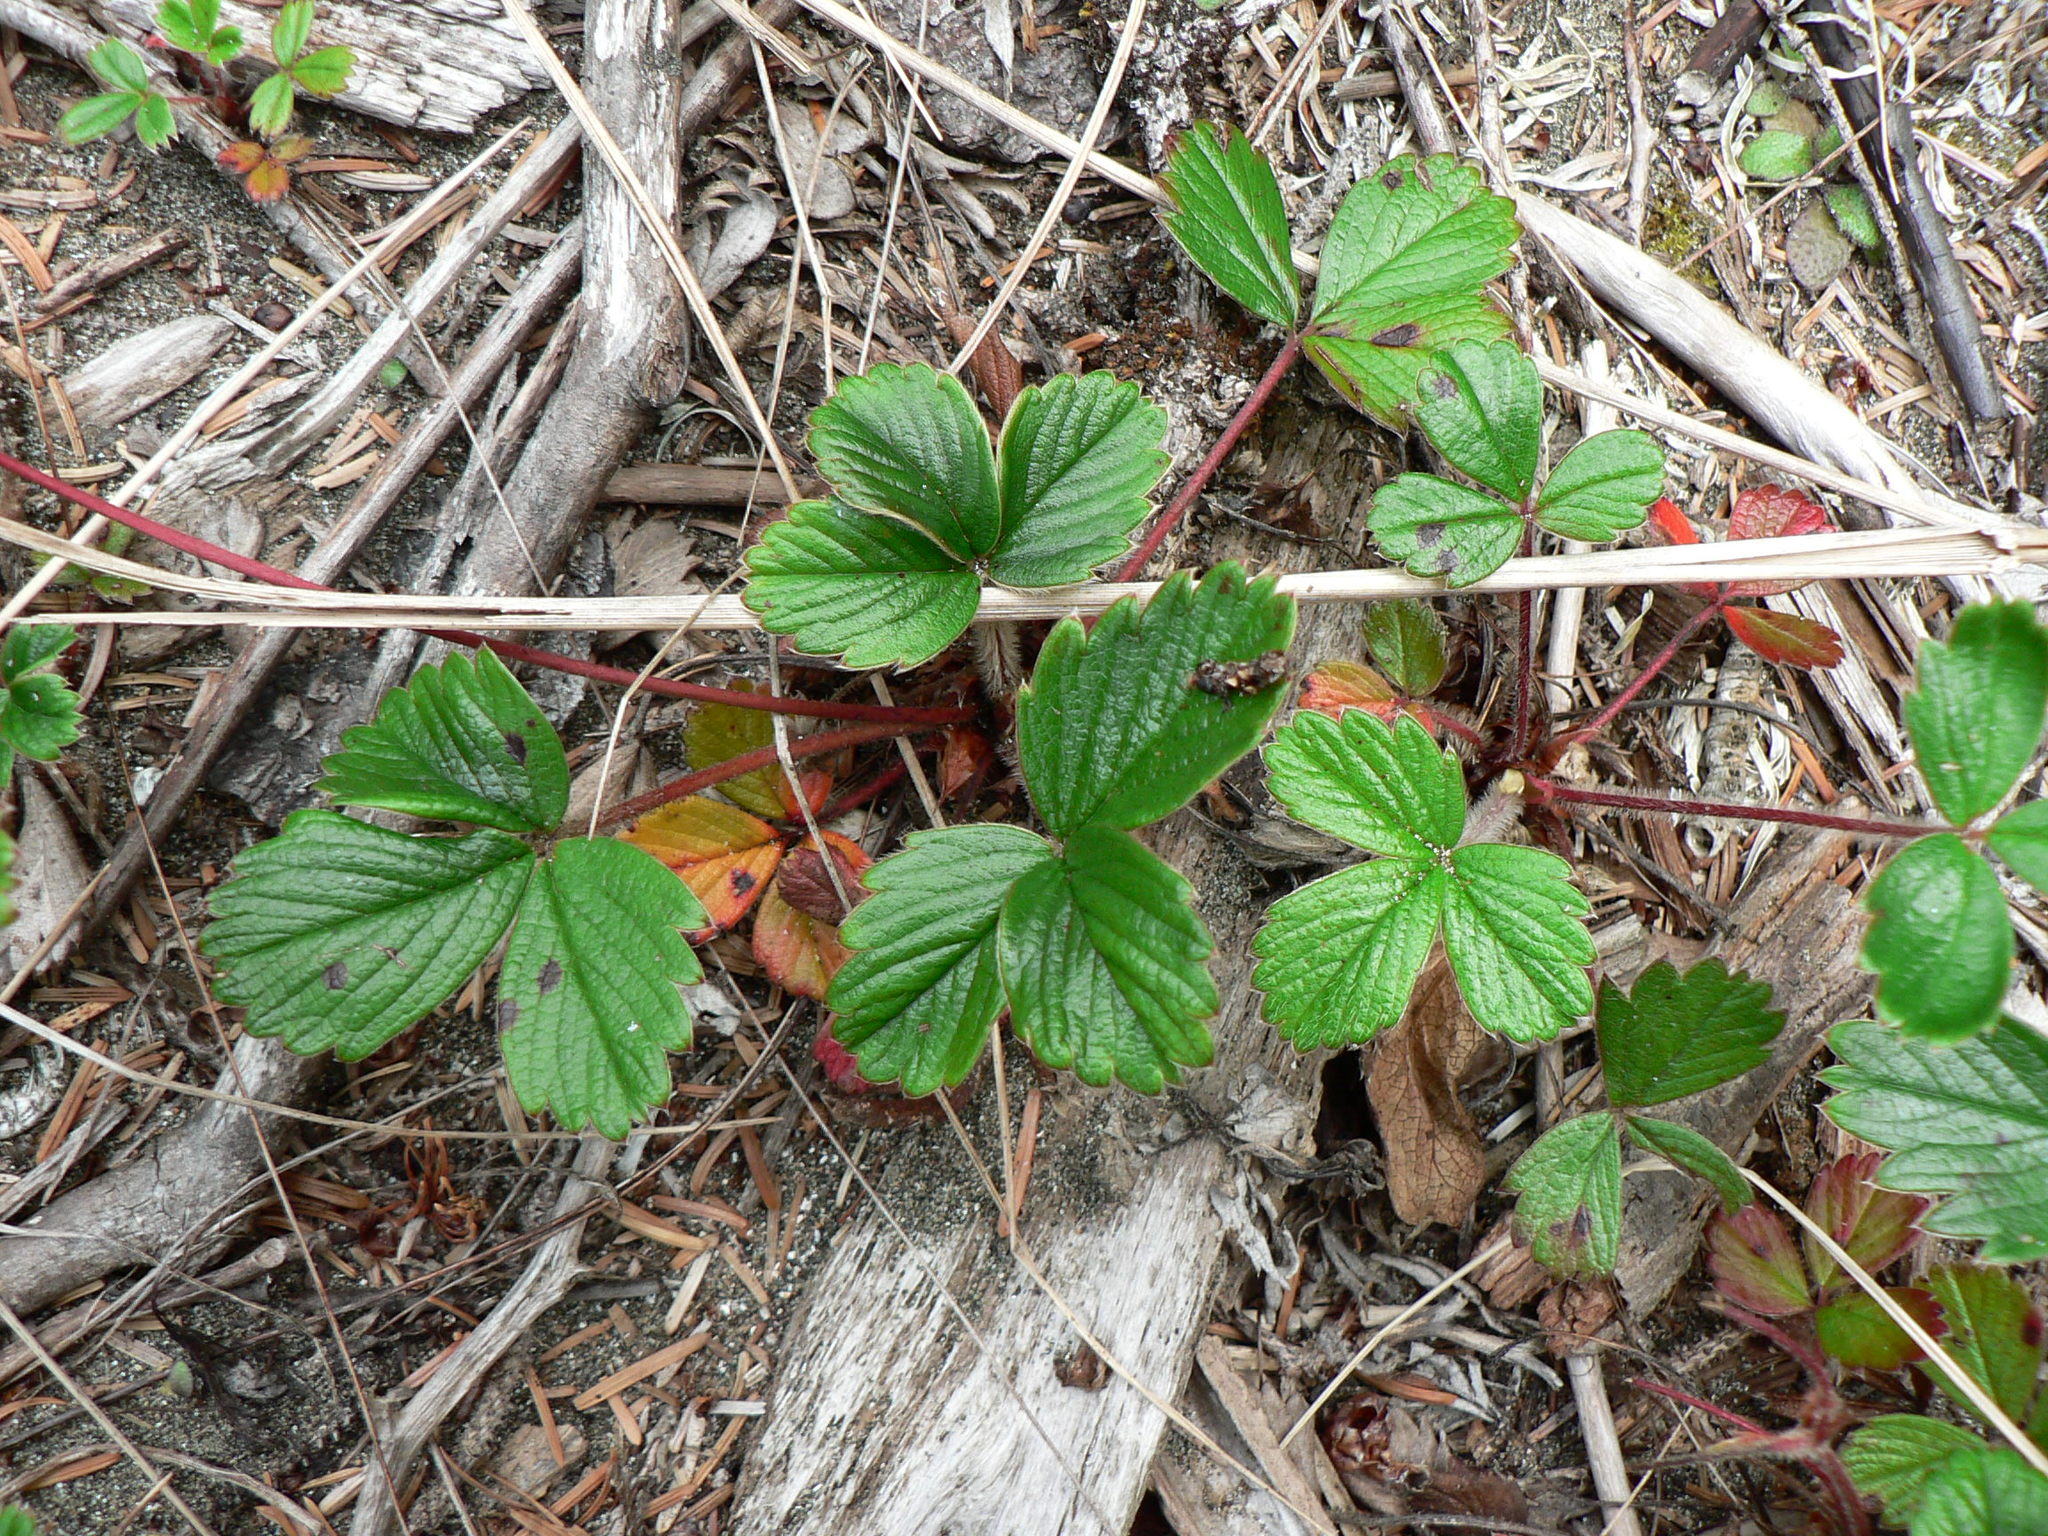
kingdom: Plantae
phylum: Tracheophyta
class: Magnoliopsida
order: Rosales
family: Rosaceae
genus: Fragaria
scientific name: Fragaria chiloensis
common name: Beach strawberry
